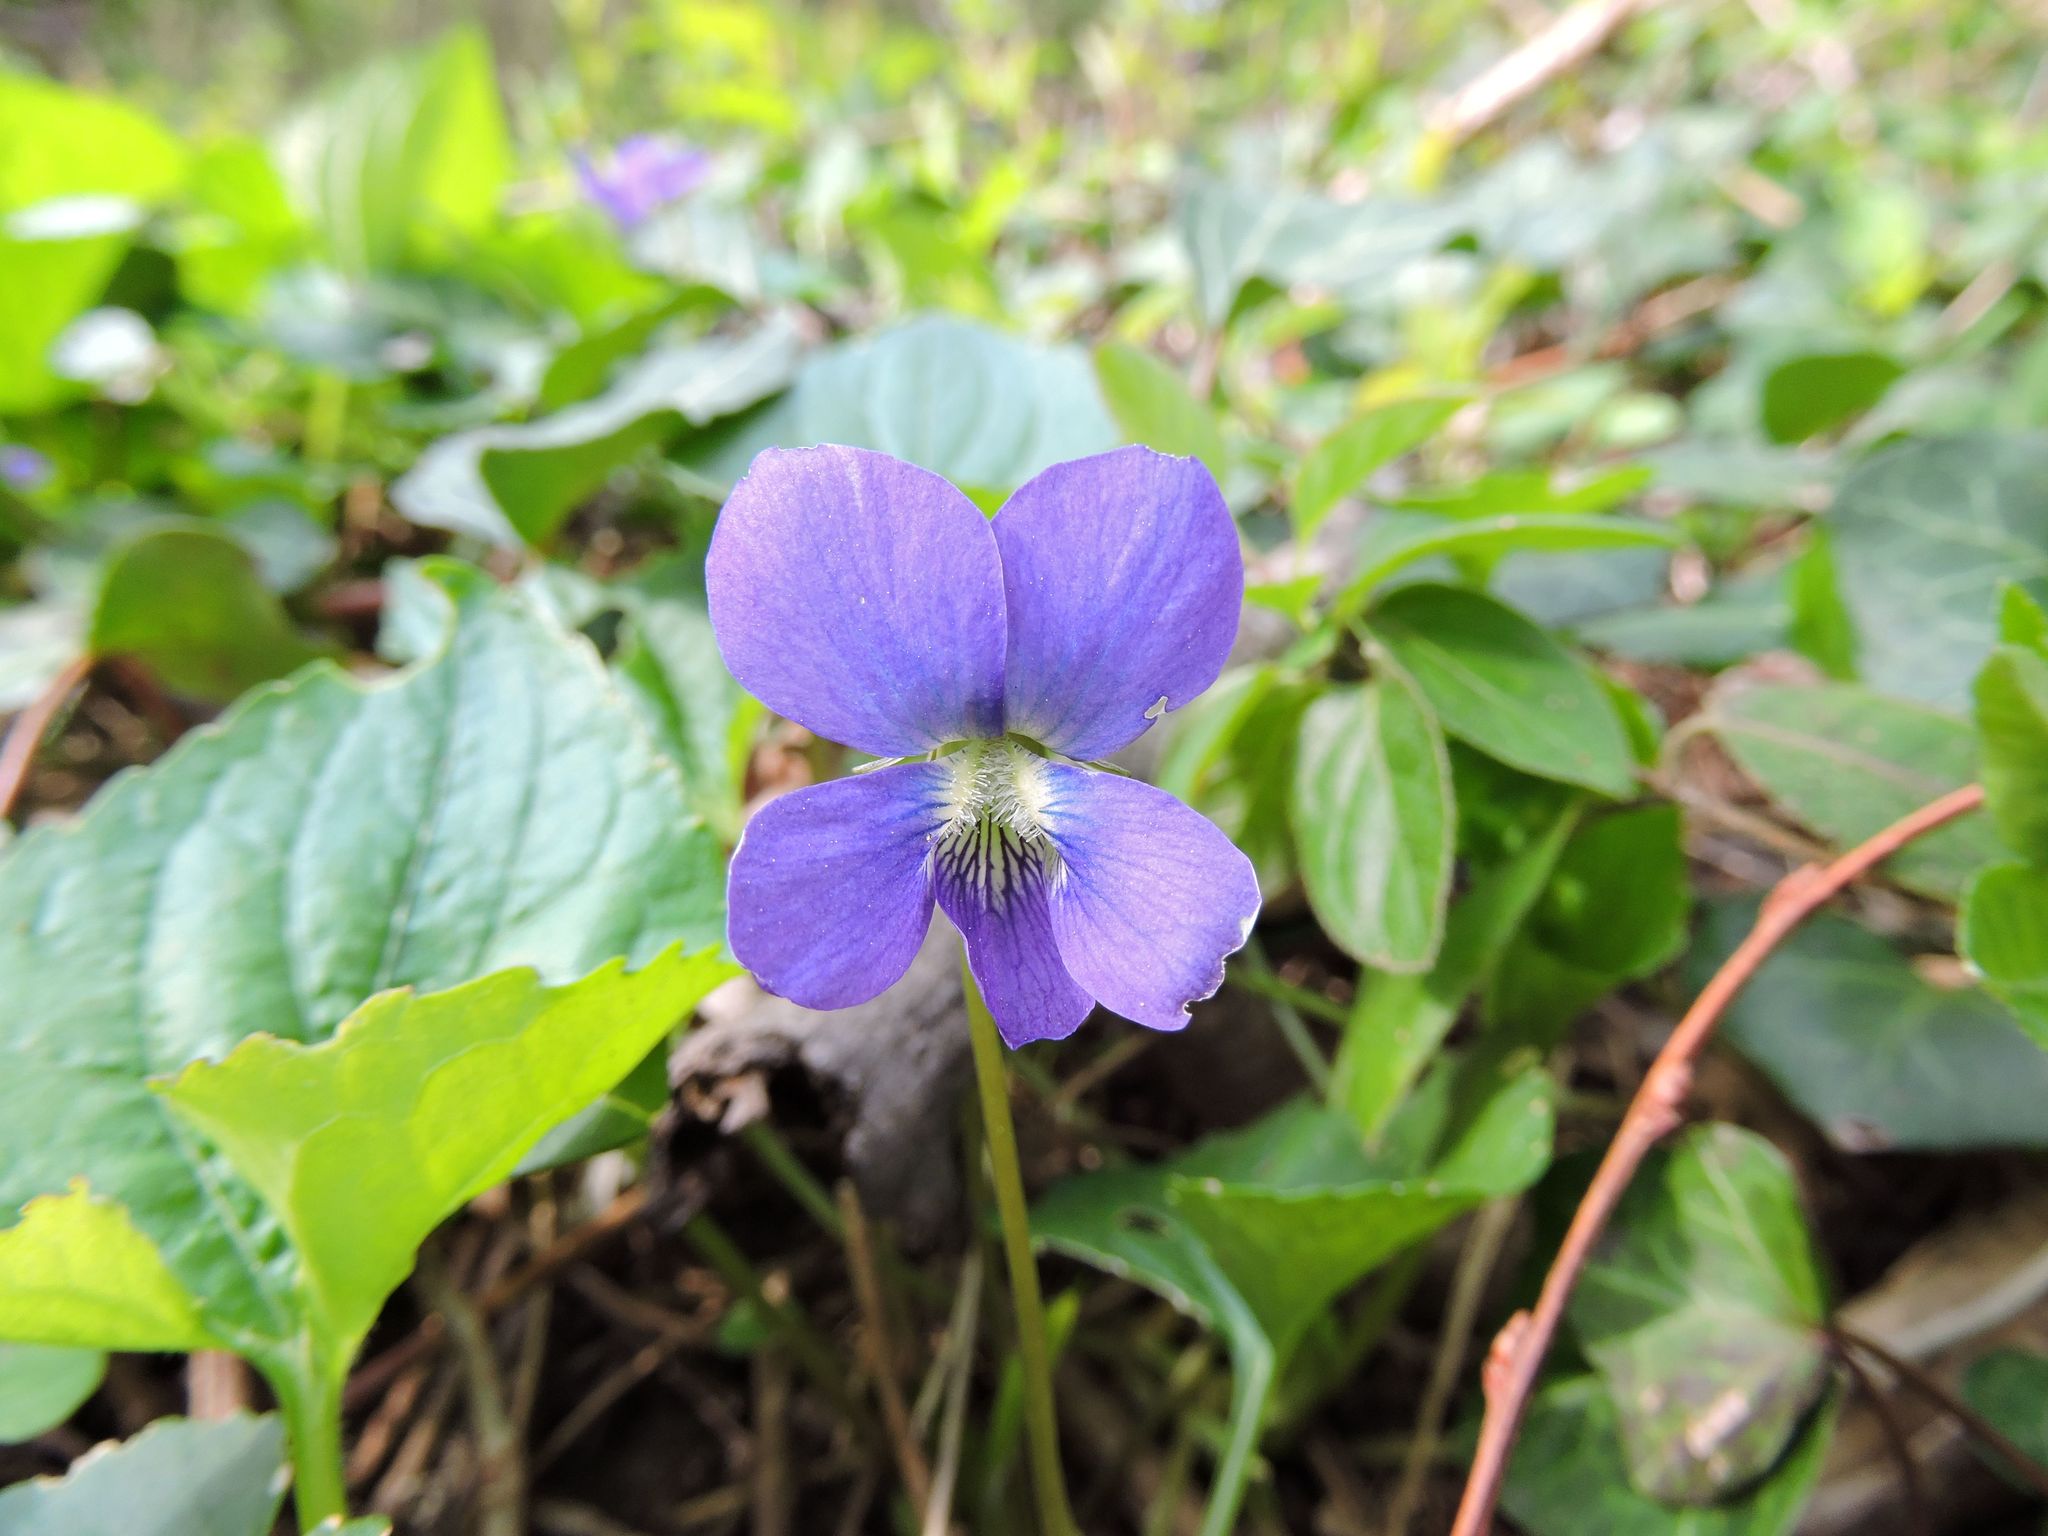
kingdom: Plantae
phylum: Tracheophyta
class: Magnoliopsida
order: Malpighiales
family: Violaceae
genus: Viola
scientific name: Viola sororia
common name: Dooryard violet
